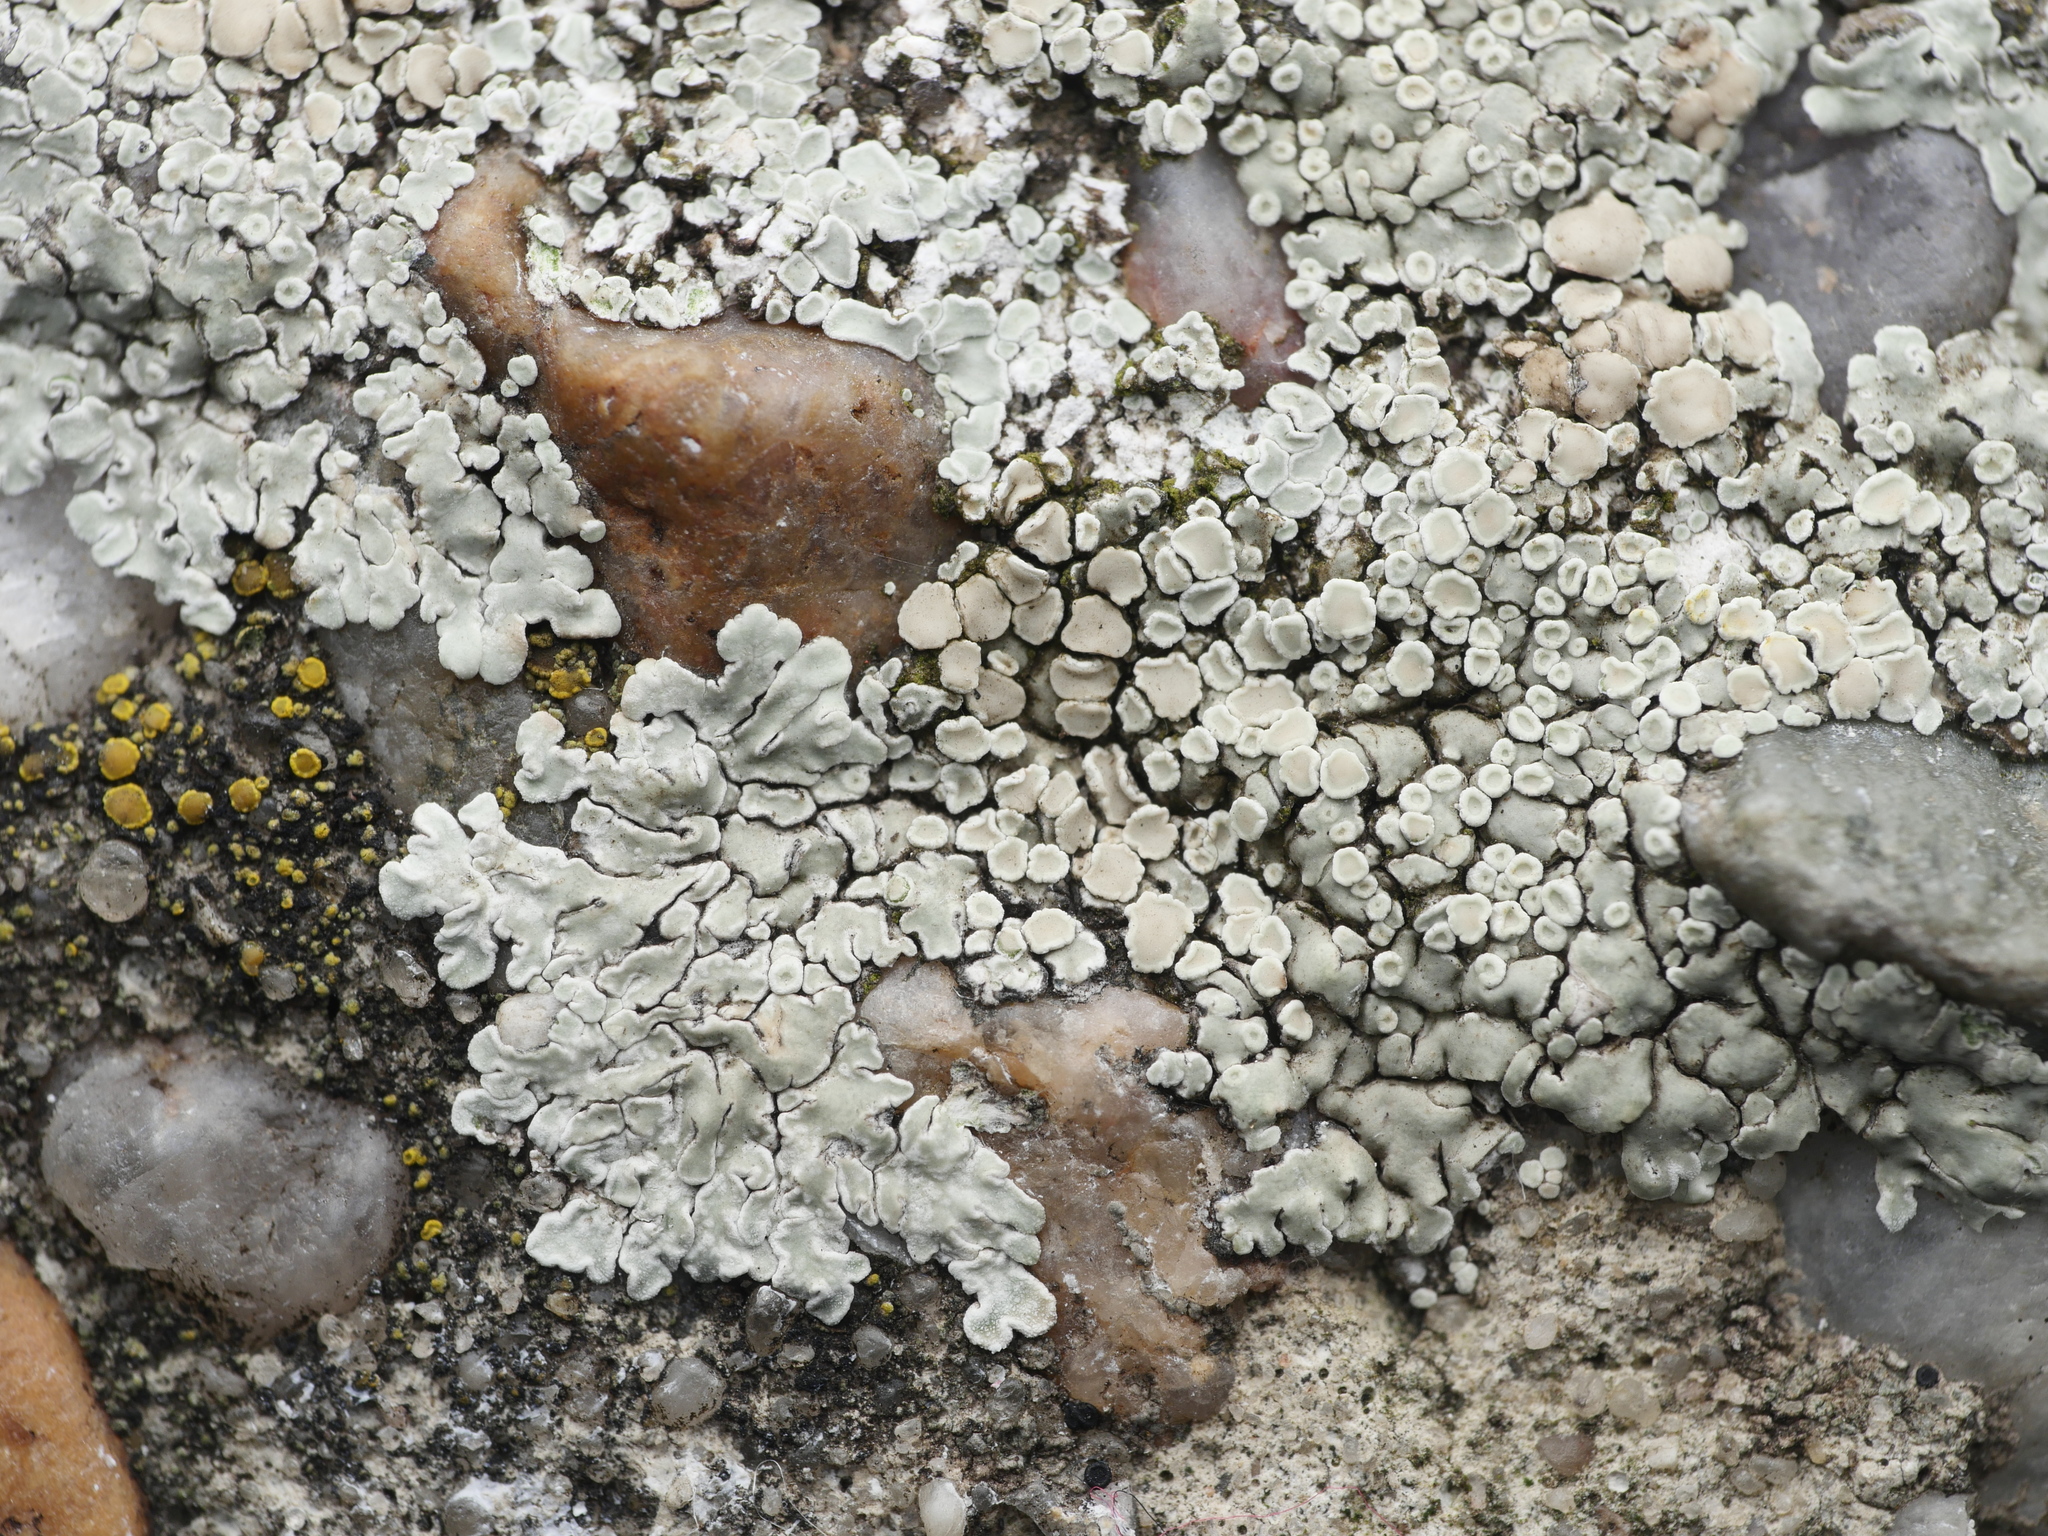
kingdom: Fungi
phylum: Ascomycota
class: Lecanoromycetes
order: Lecanorales
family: Lecanoraceae
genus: Protoparmeliopsis
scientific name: Protoparmeliopsis muralis
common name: Stonewall rim lichen
